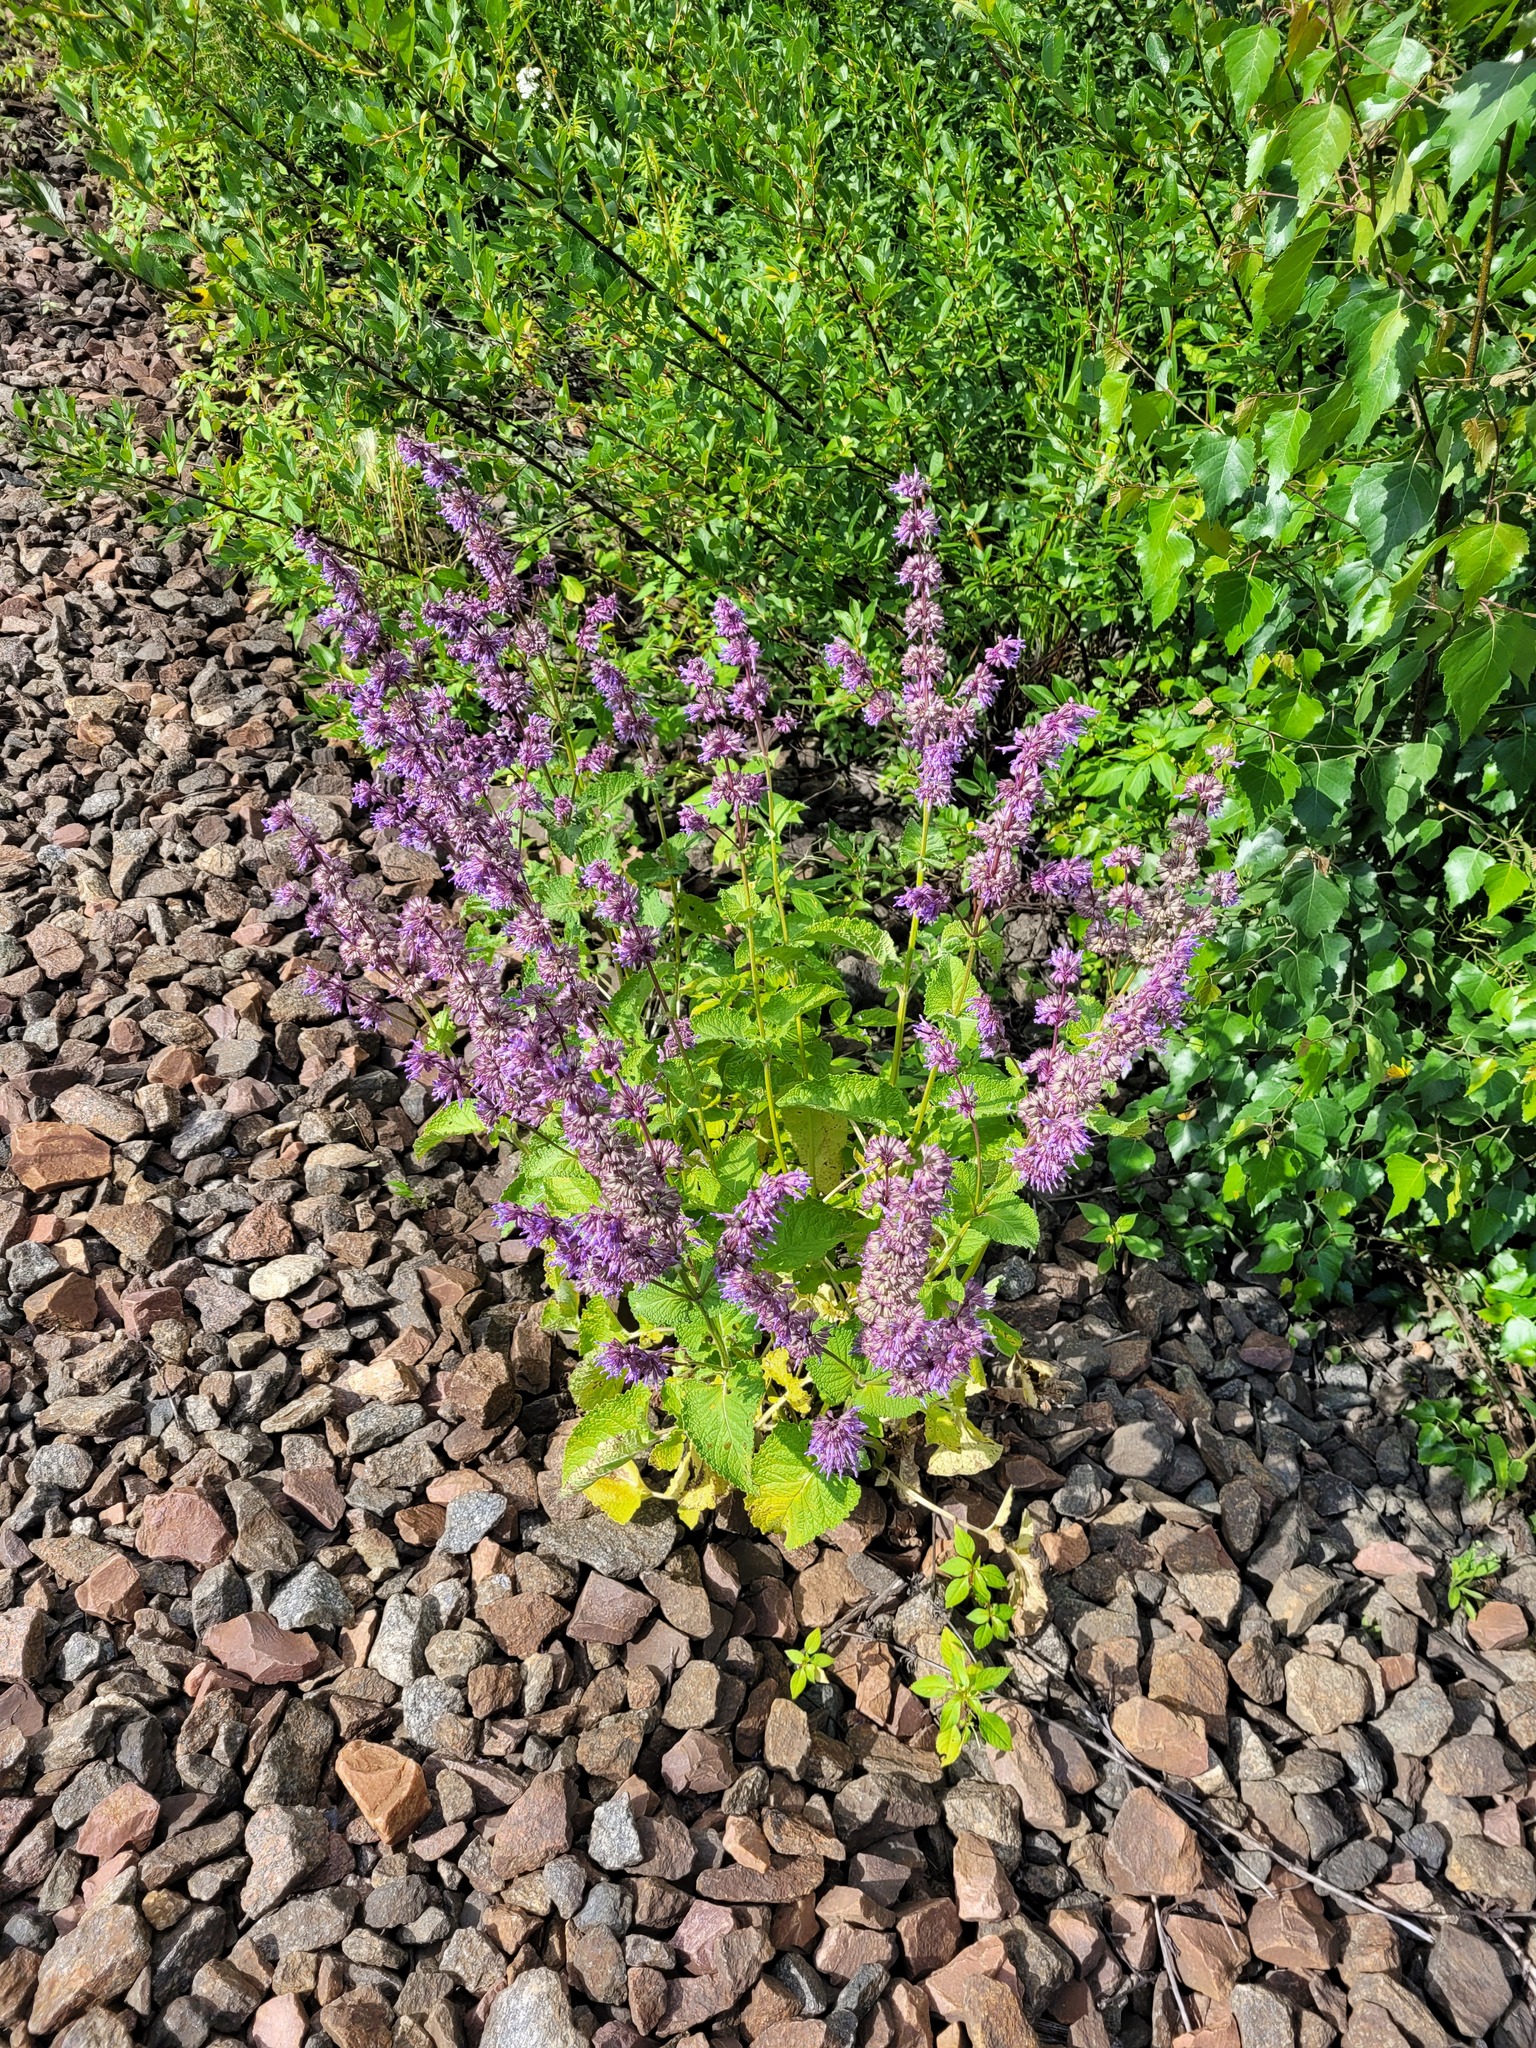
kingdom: Plantae
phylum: Tracheophyta
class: Magnoliopsida
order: Lamiales
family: Lamiaceae
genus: Salvia
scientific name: Salvia verticillata
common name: Whorled clary
